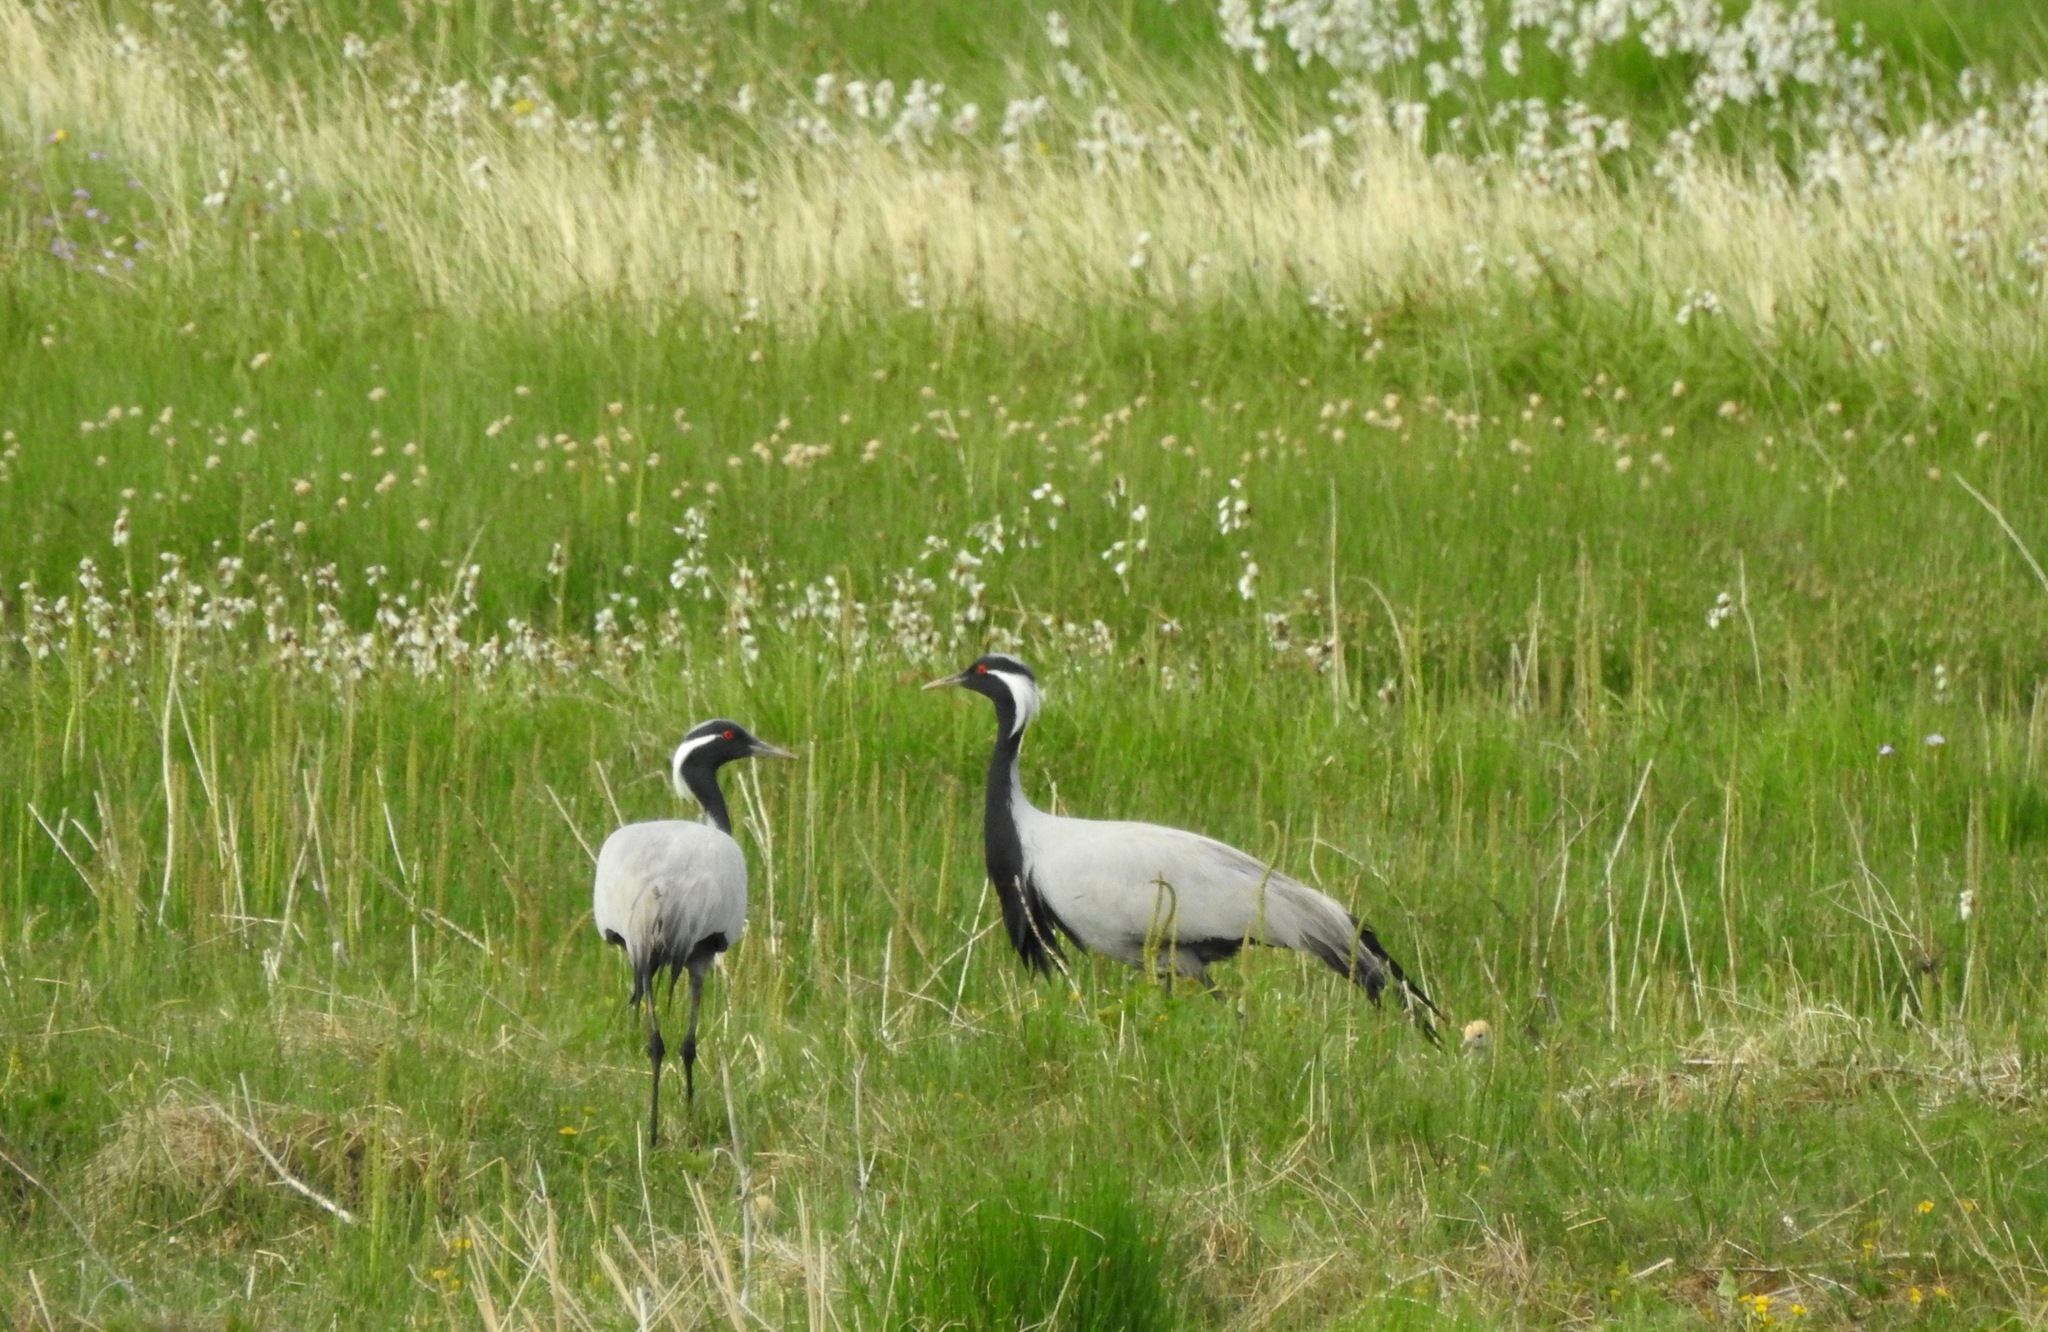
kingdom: Animalia
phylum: Chordata
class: Aves
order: Gruiformes
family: Gruidae
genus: Anthropoides
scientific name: Anthropoides virgo
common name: Demoiselle crane
